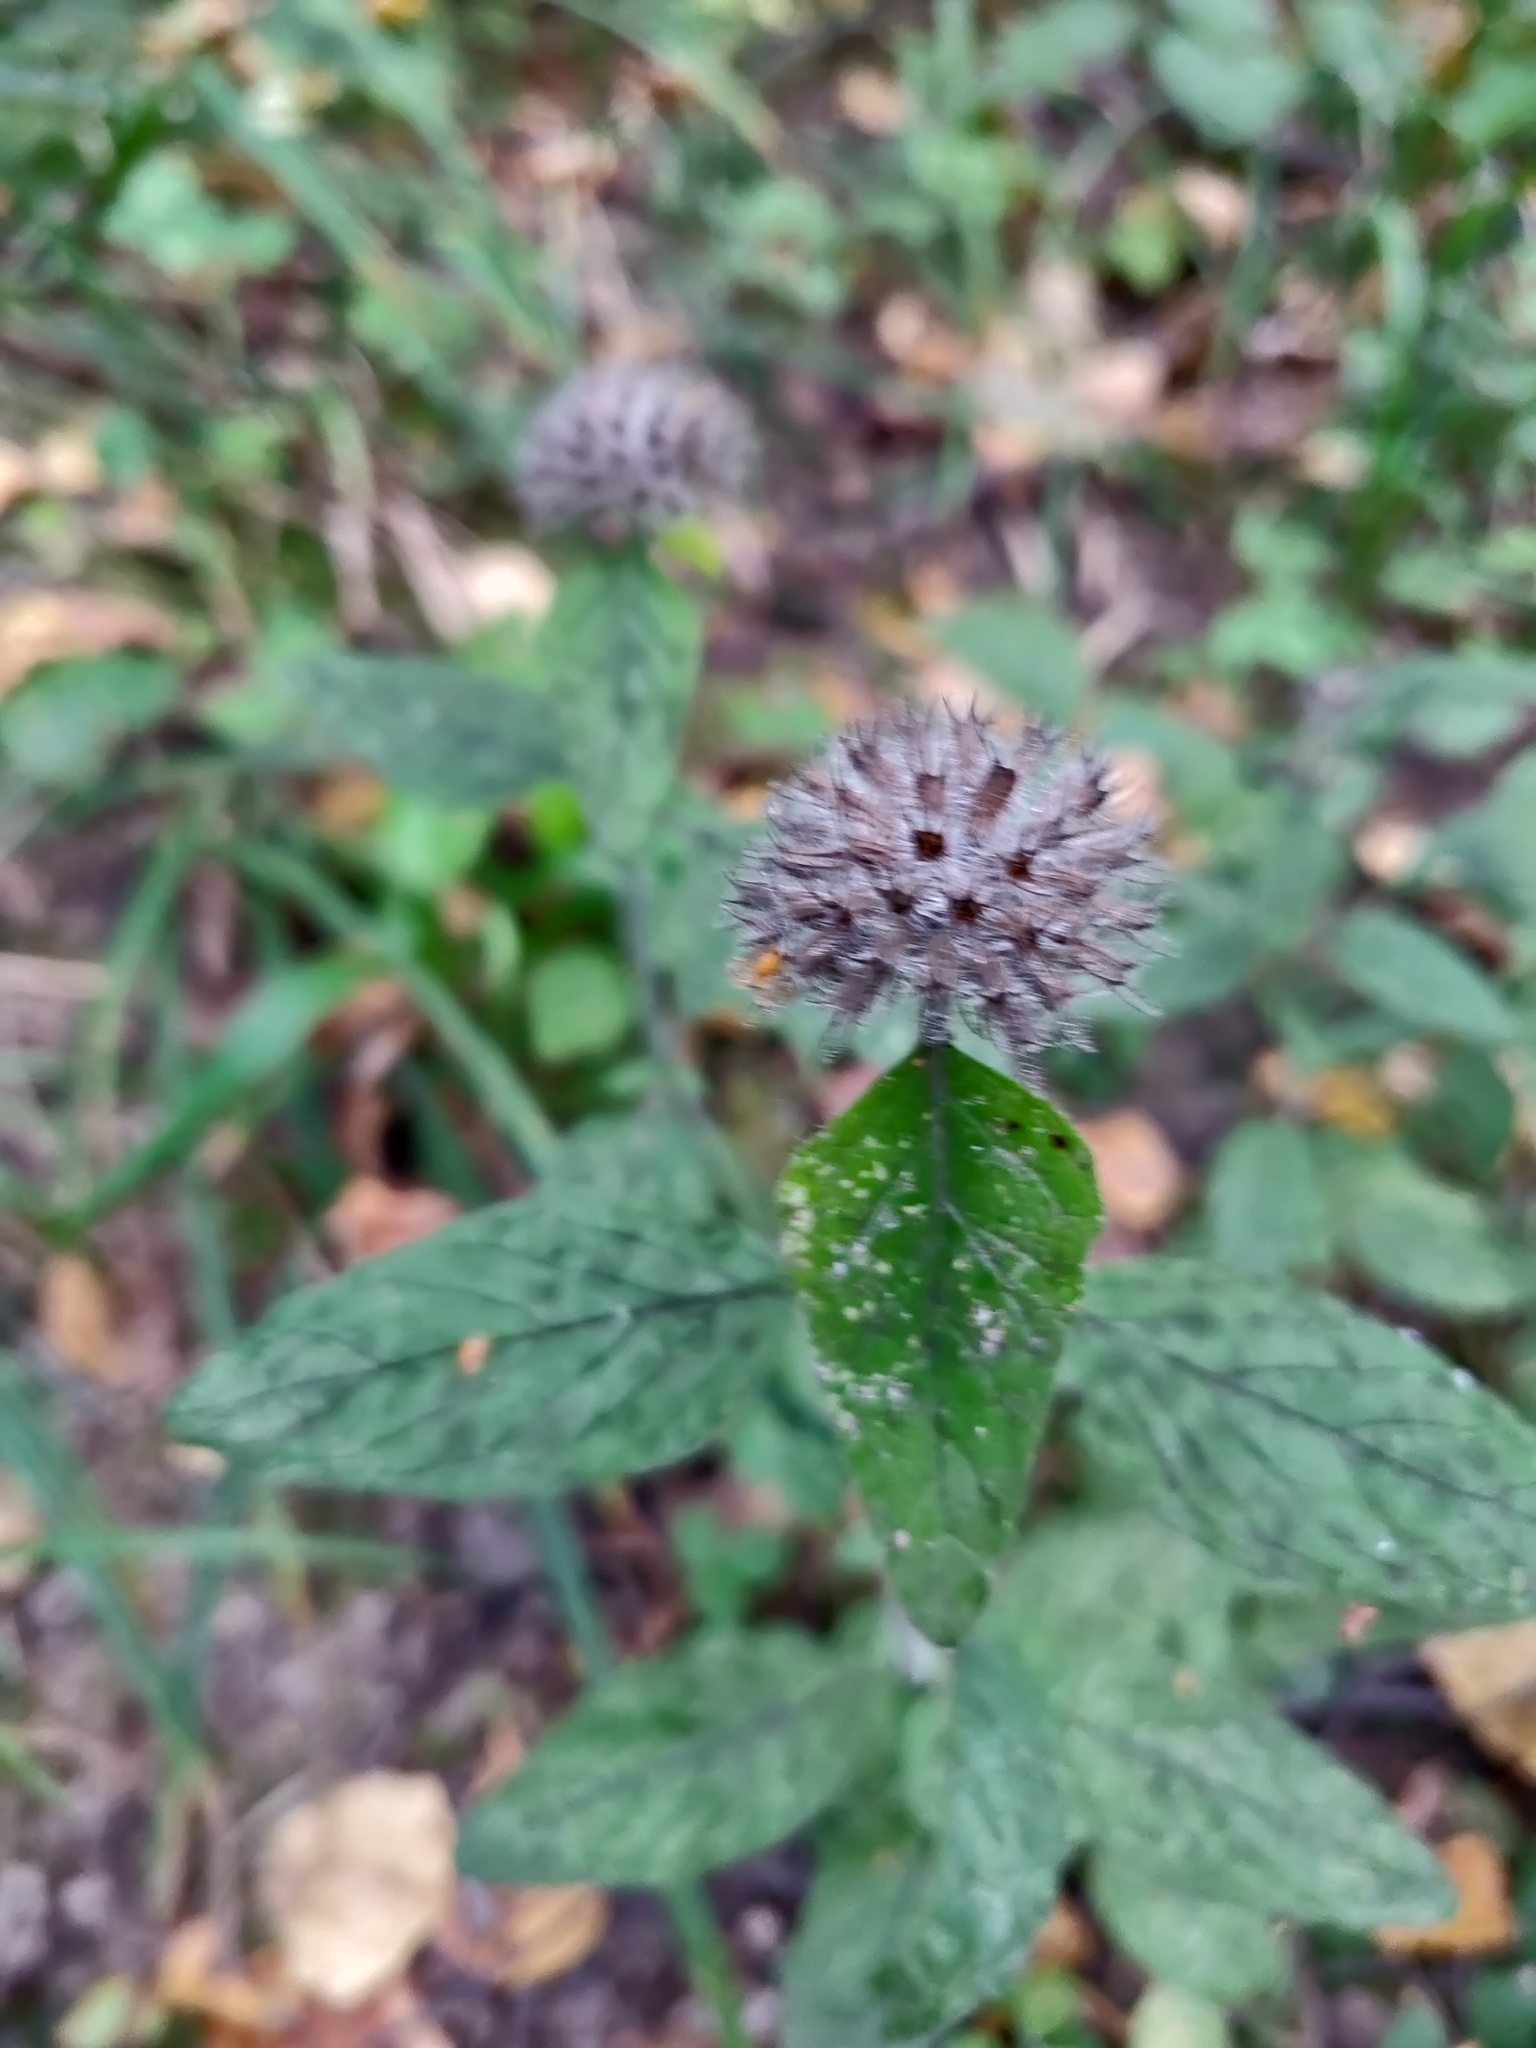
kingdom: Plantae
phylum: Tracheophyta
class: Magnoliopsida
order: Lamiales
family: Lamiaceae
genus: Clinopodium
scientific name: Clinopodium vulgare
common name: Wild basil
